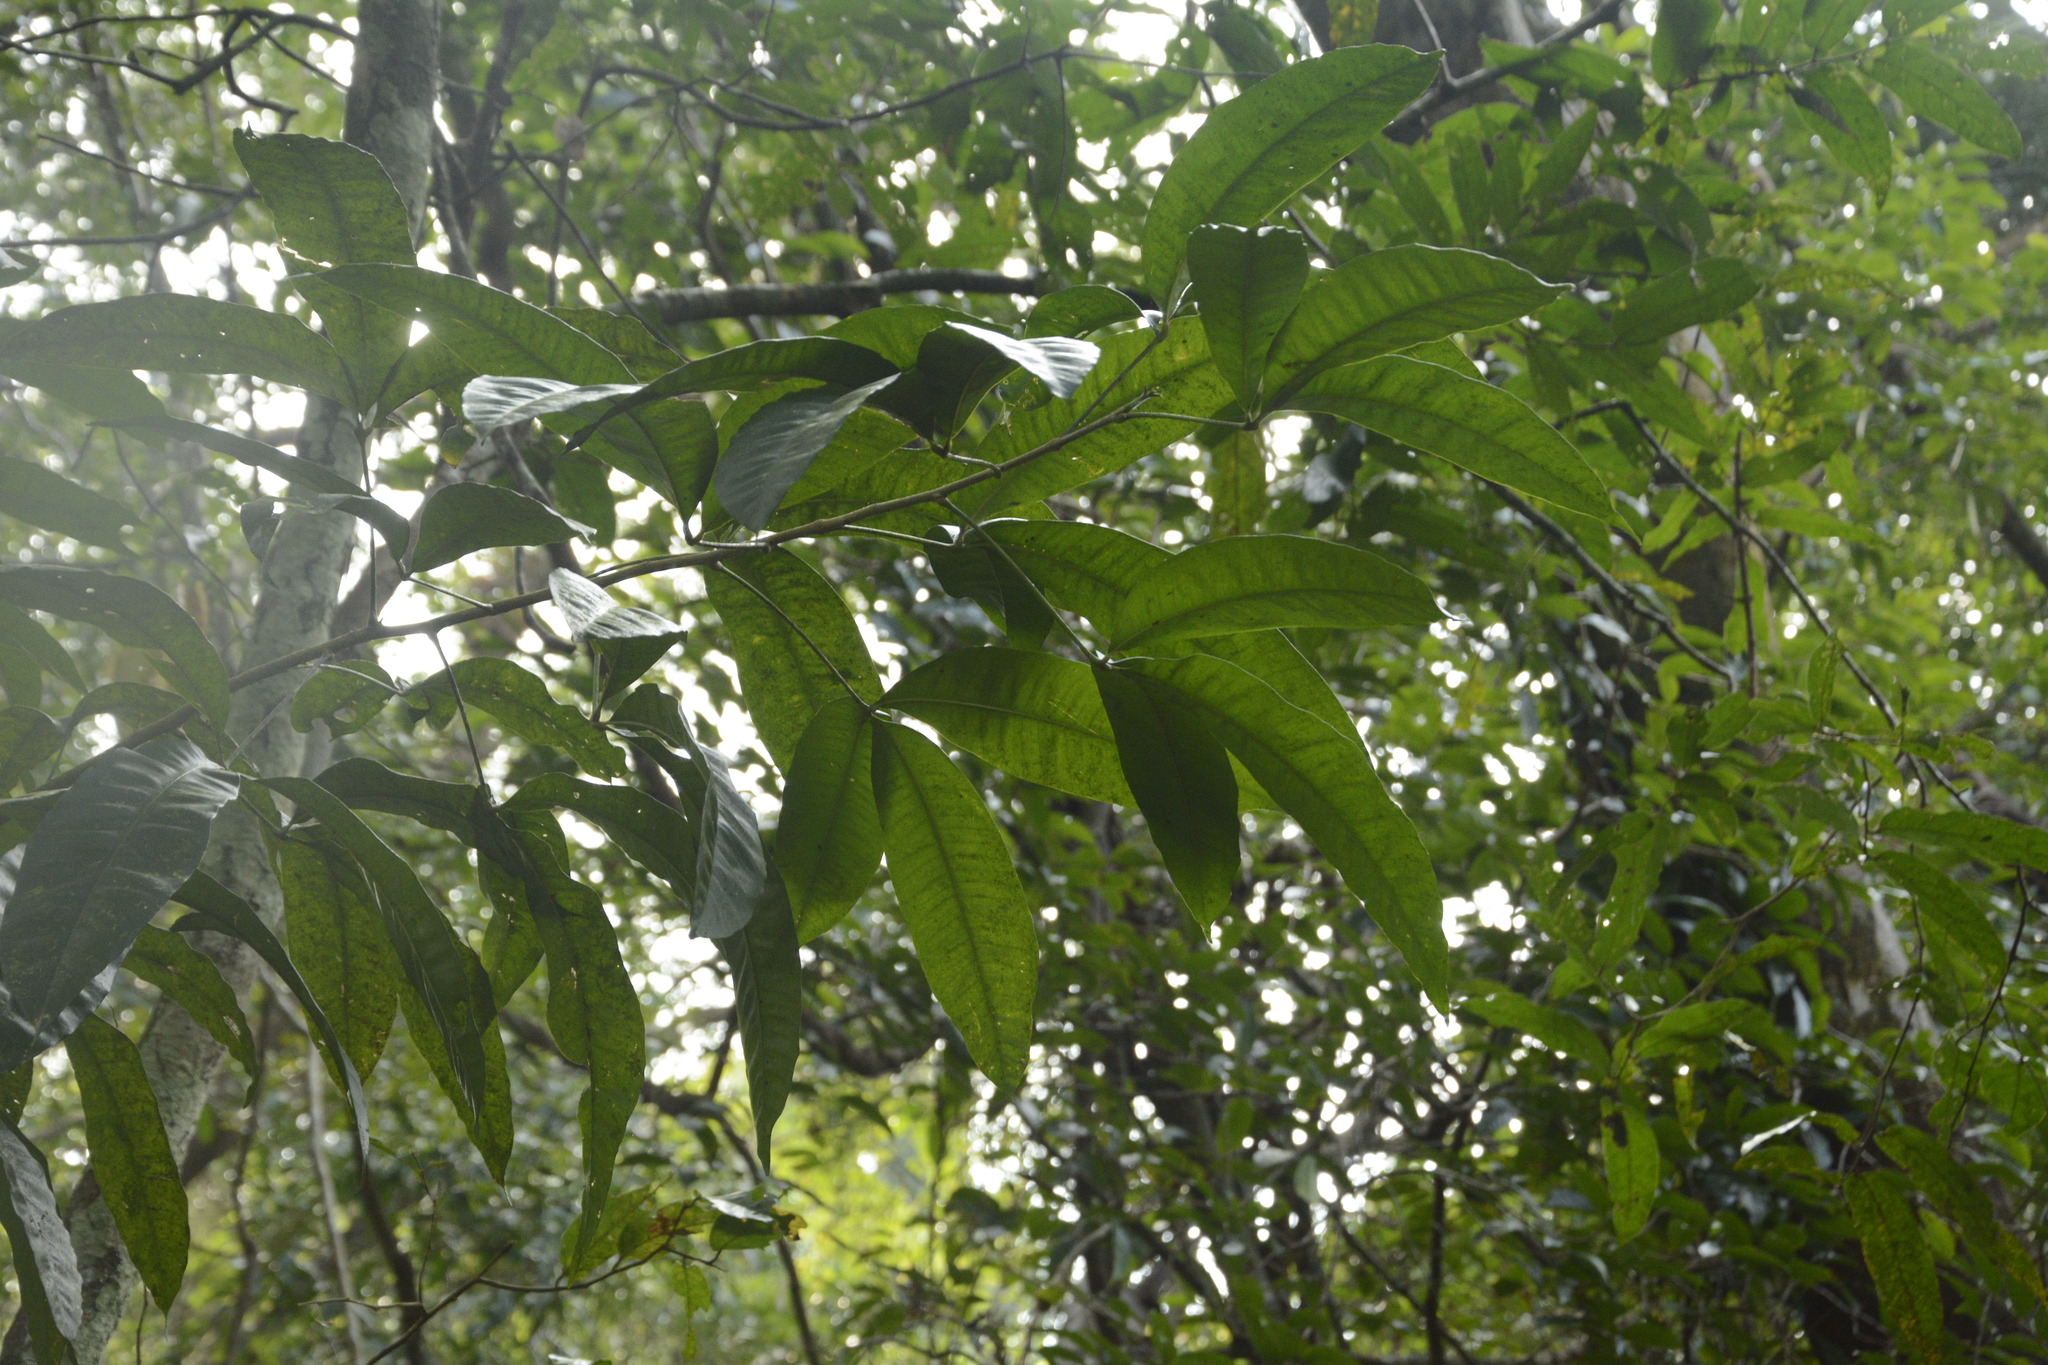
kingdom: Plantae
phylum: Tracheophyta
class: Magnoliopsida
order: Sapindales
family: Rutaceae
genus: Melicope
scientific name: Melicope lunu-ankenda
